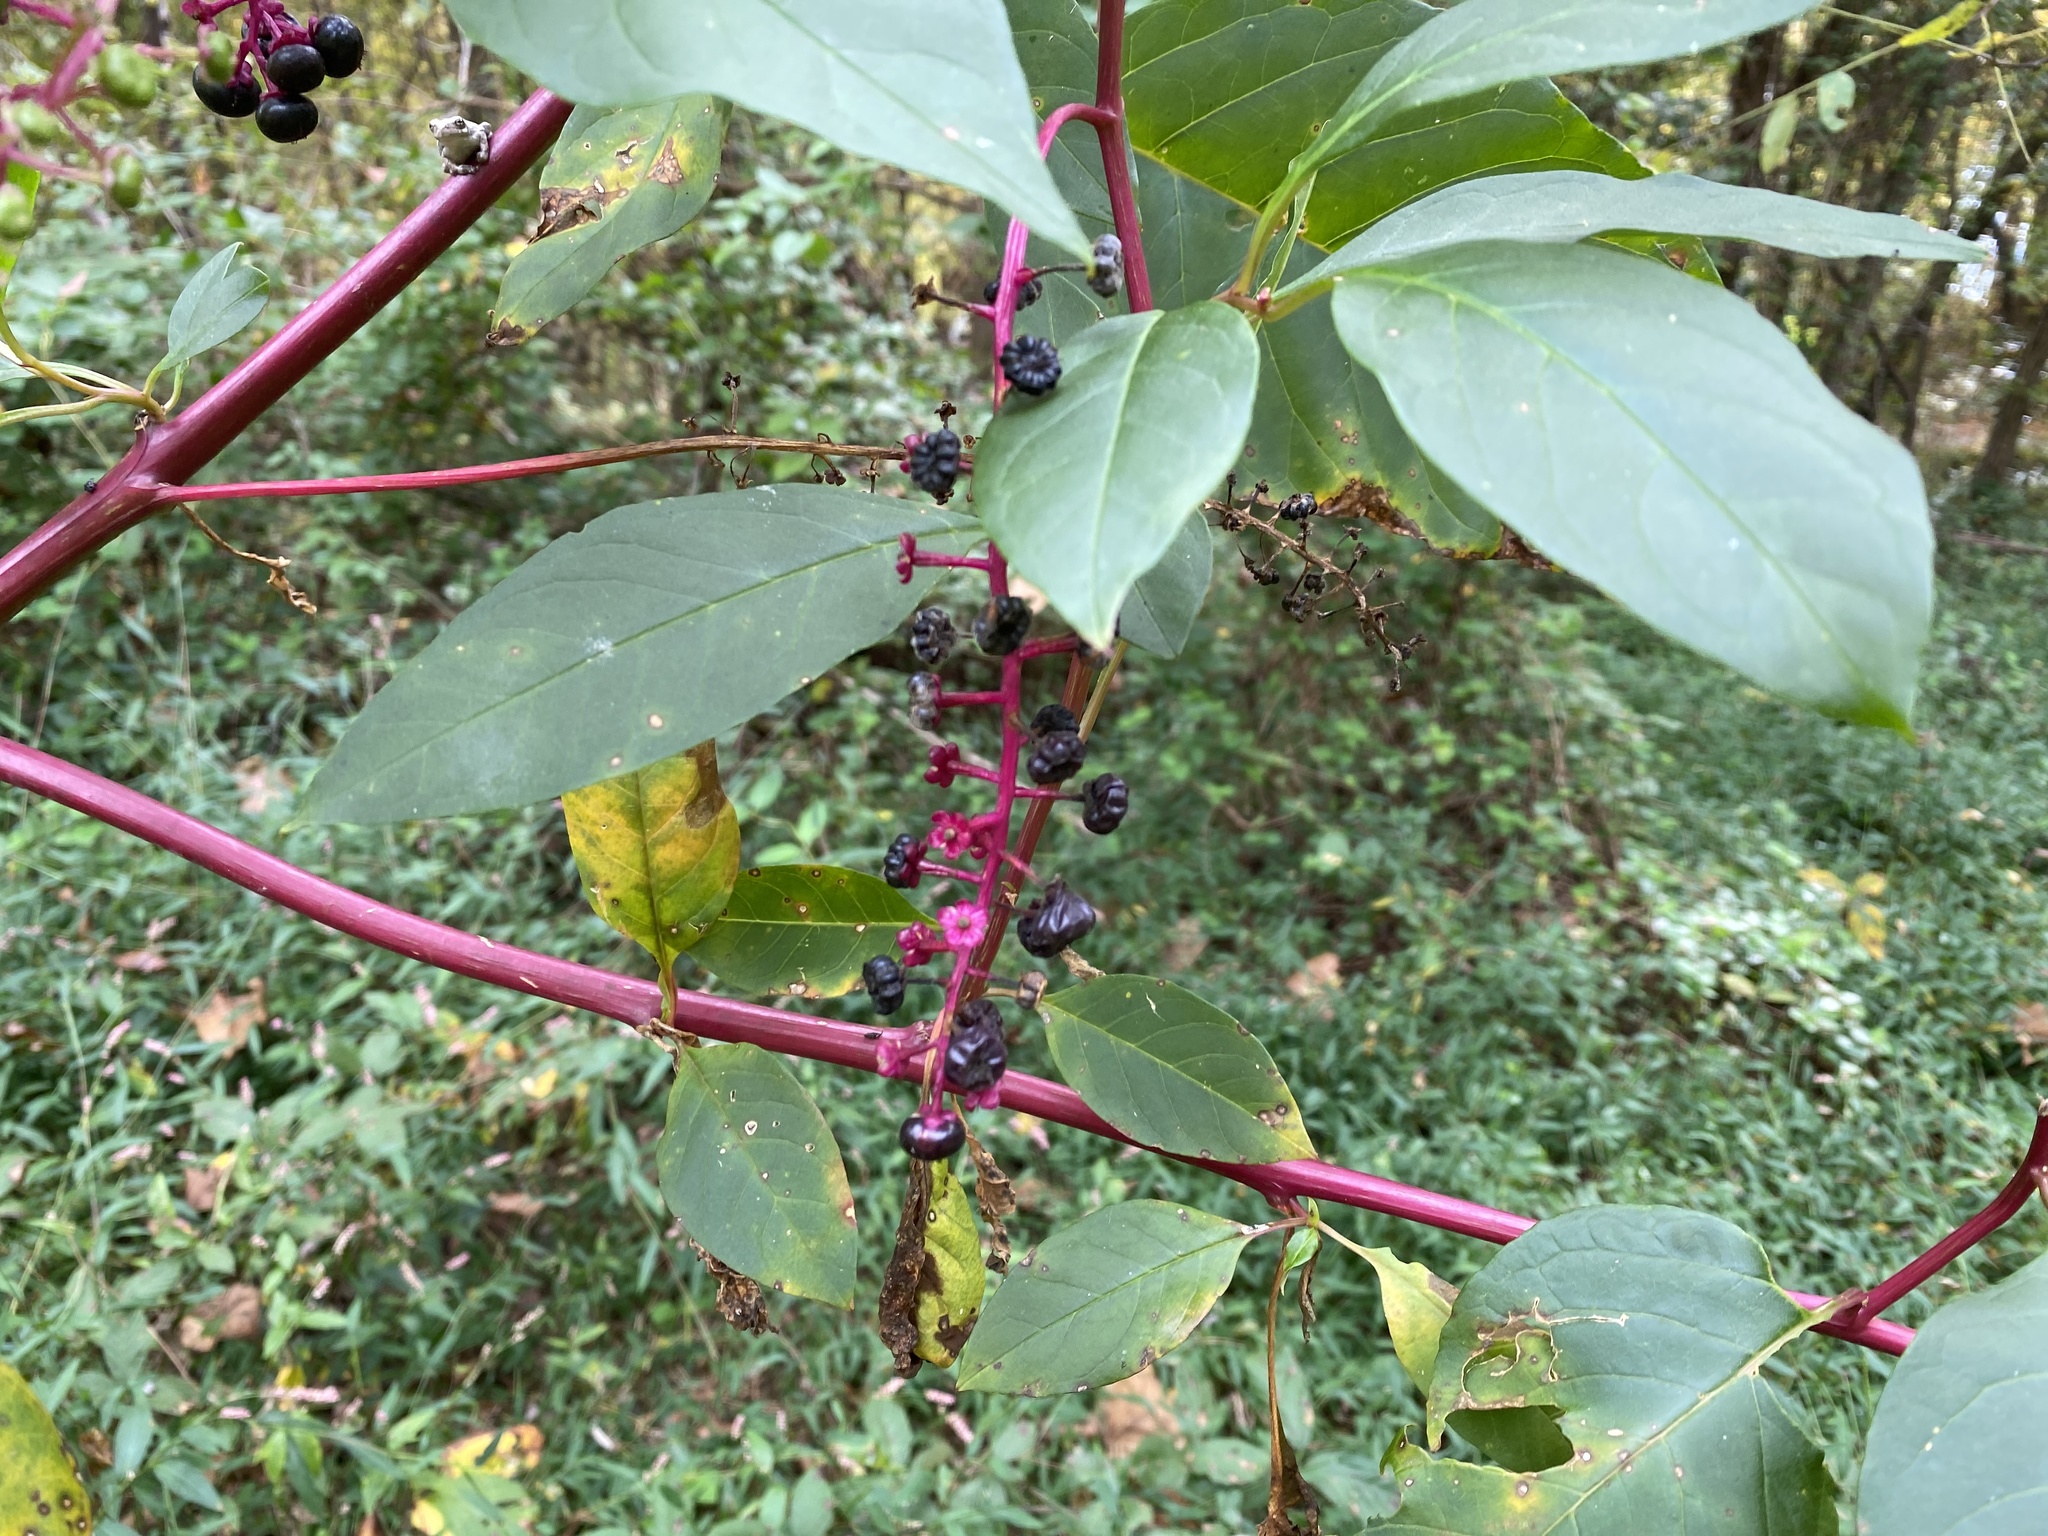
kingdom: Plantae
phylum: Tracheophyta
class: Magnoliopsida
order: Caryophyllales
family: Phytolaccaceae
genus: Phytolacca
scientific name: Phytolacca americana
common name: American pokeweed
